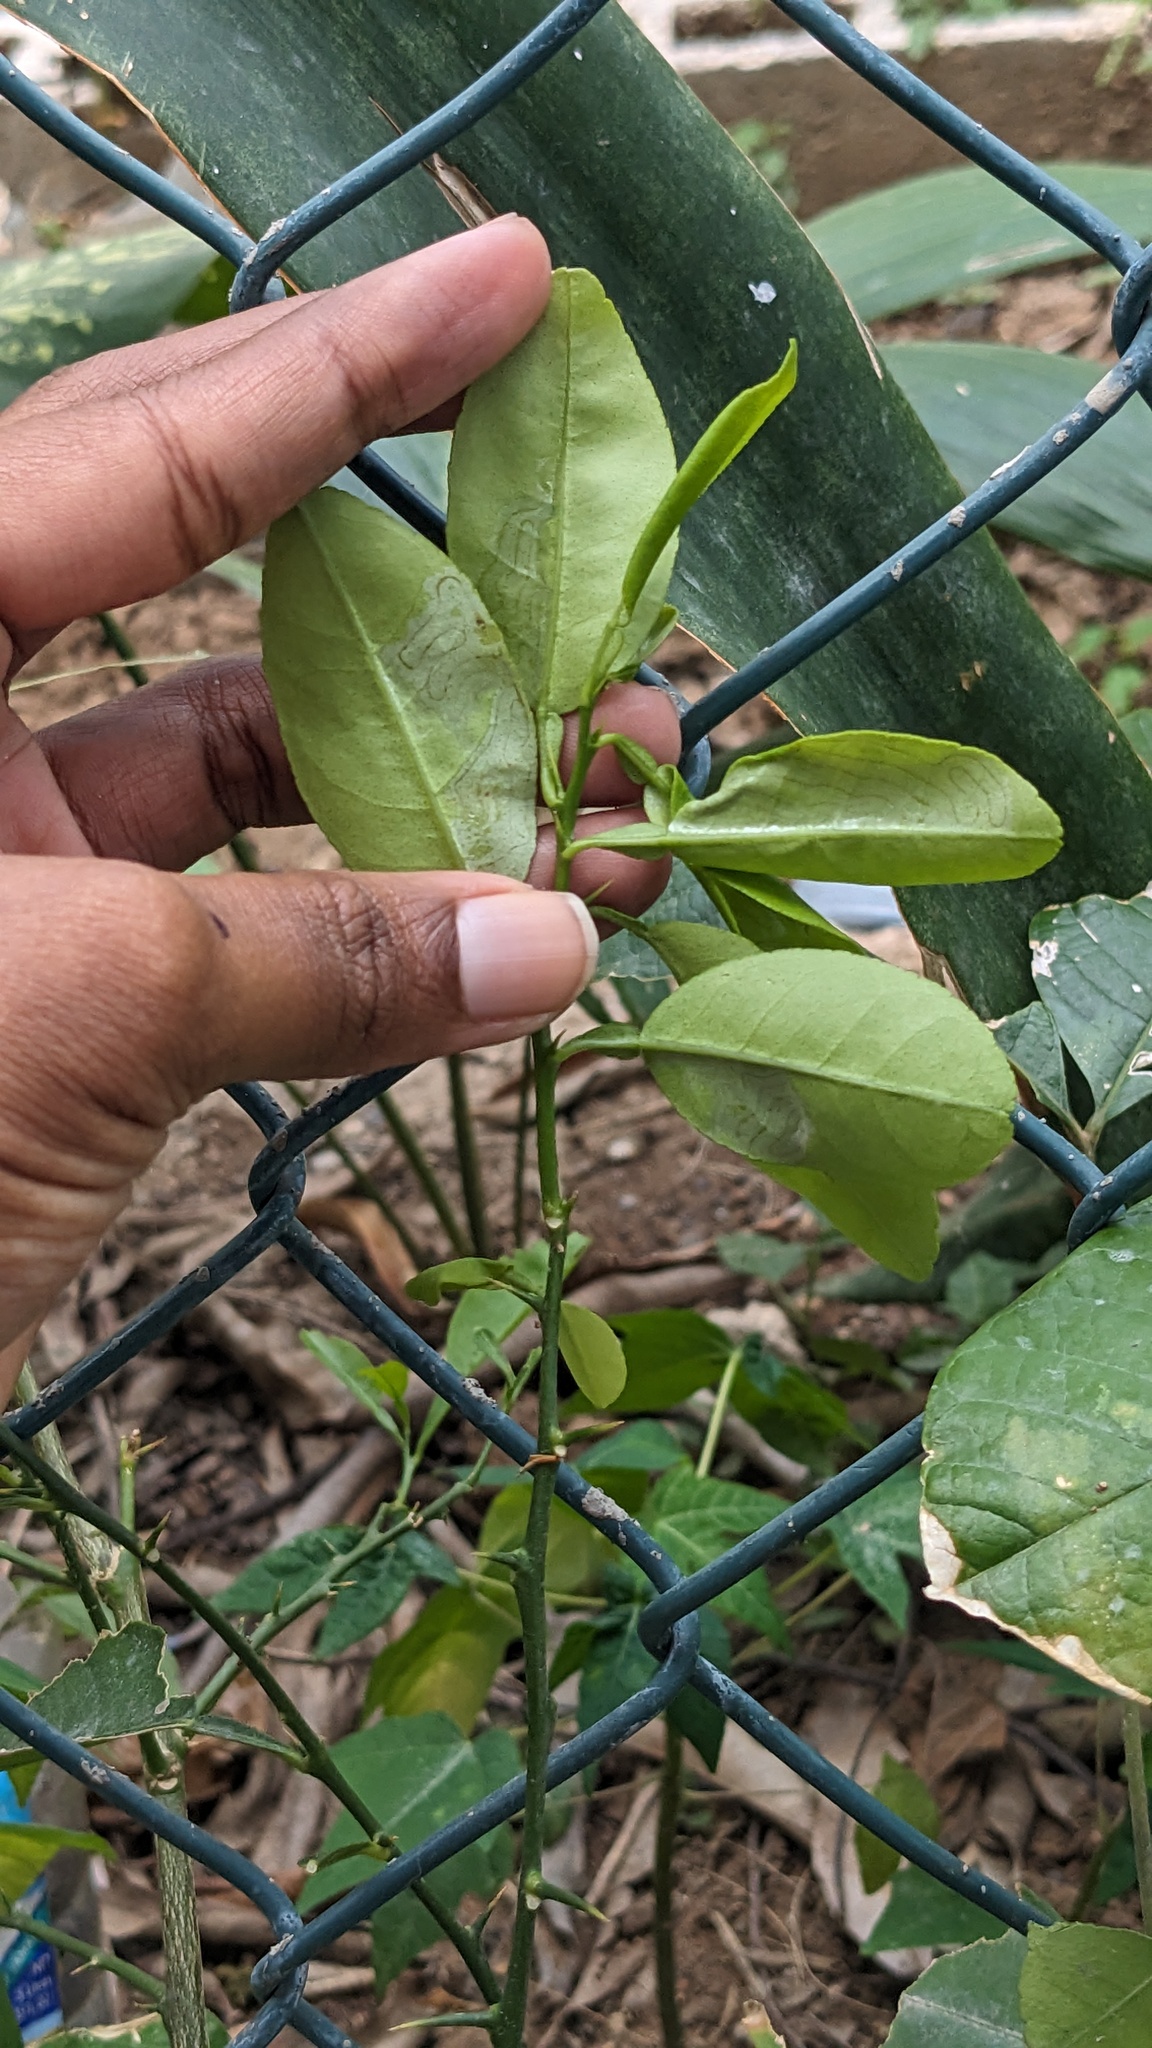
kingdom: Animalia
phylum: Arthropoda
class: Insecta
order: Lepidoptera
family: Gracillariidae
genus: Phyllocnistis
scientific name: Phyllocnistis citrella
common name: Citrus leafminer
